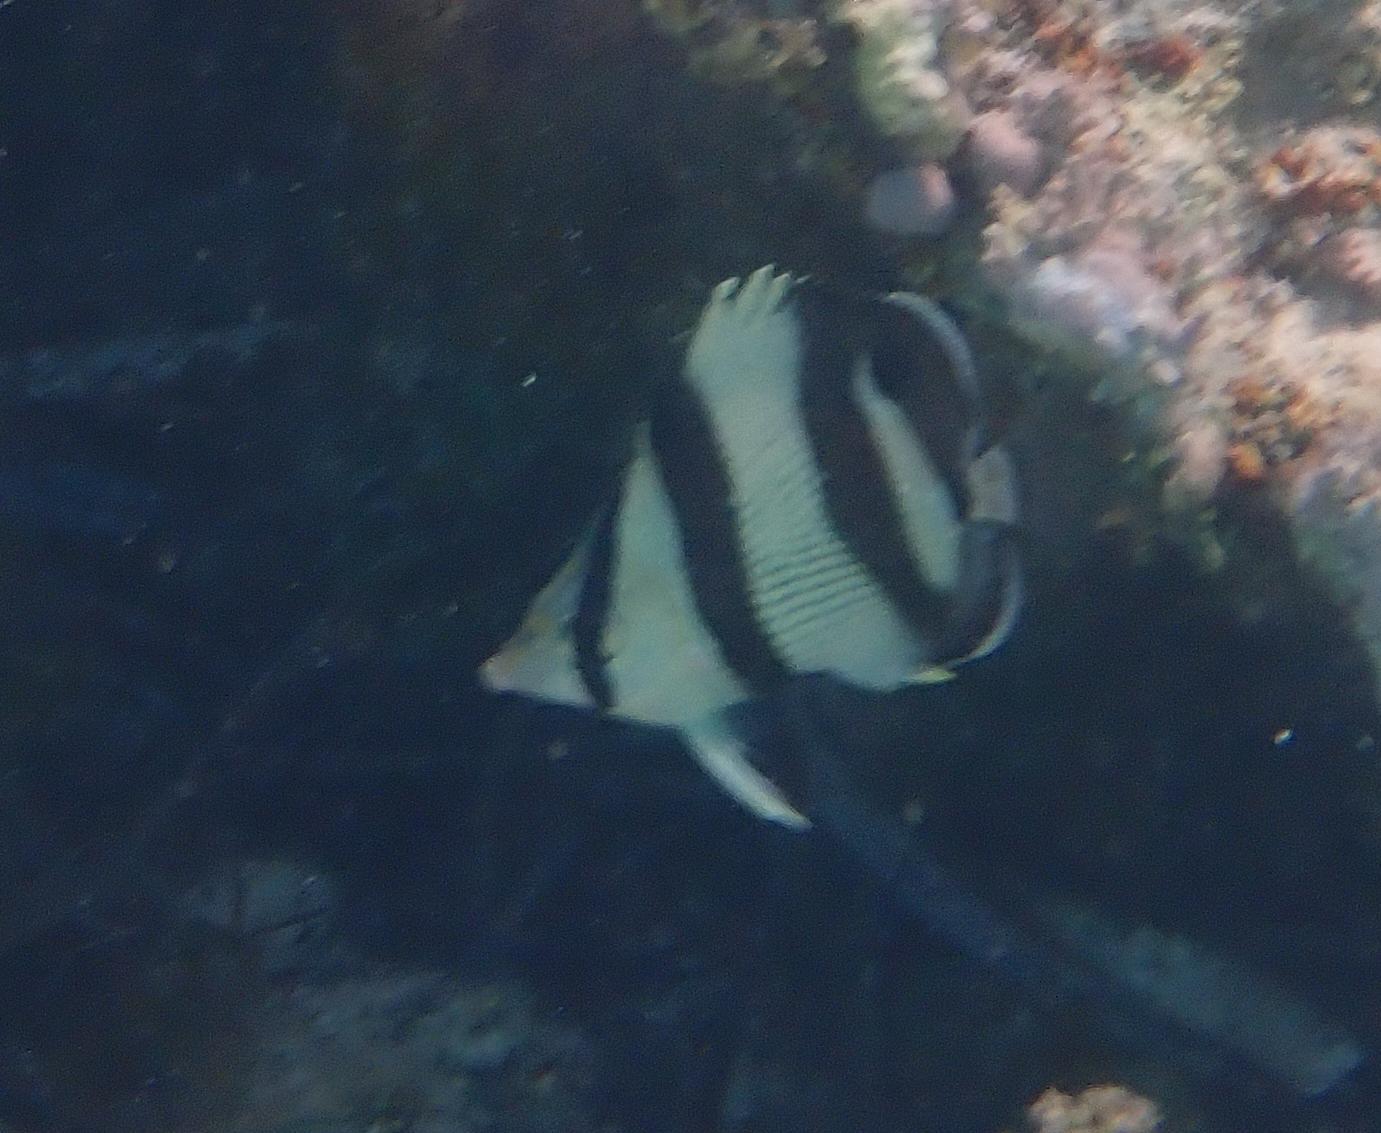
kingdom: Animalia
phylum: Chordata
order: Perciformes
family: Chaetodontidae
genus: Chaetodon
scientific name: Chaetodon striatus
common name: Banded butterflyfish
